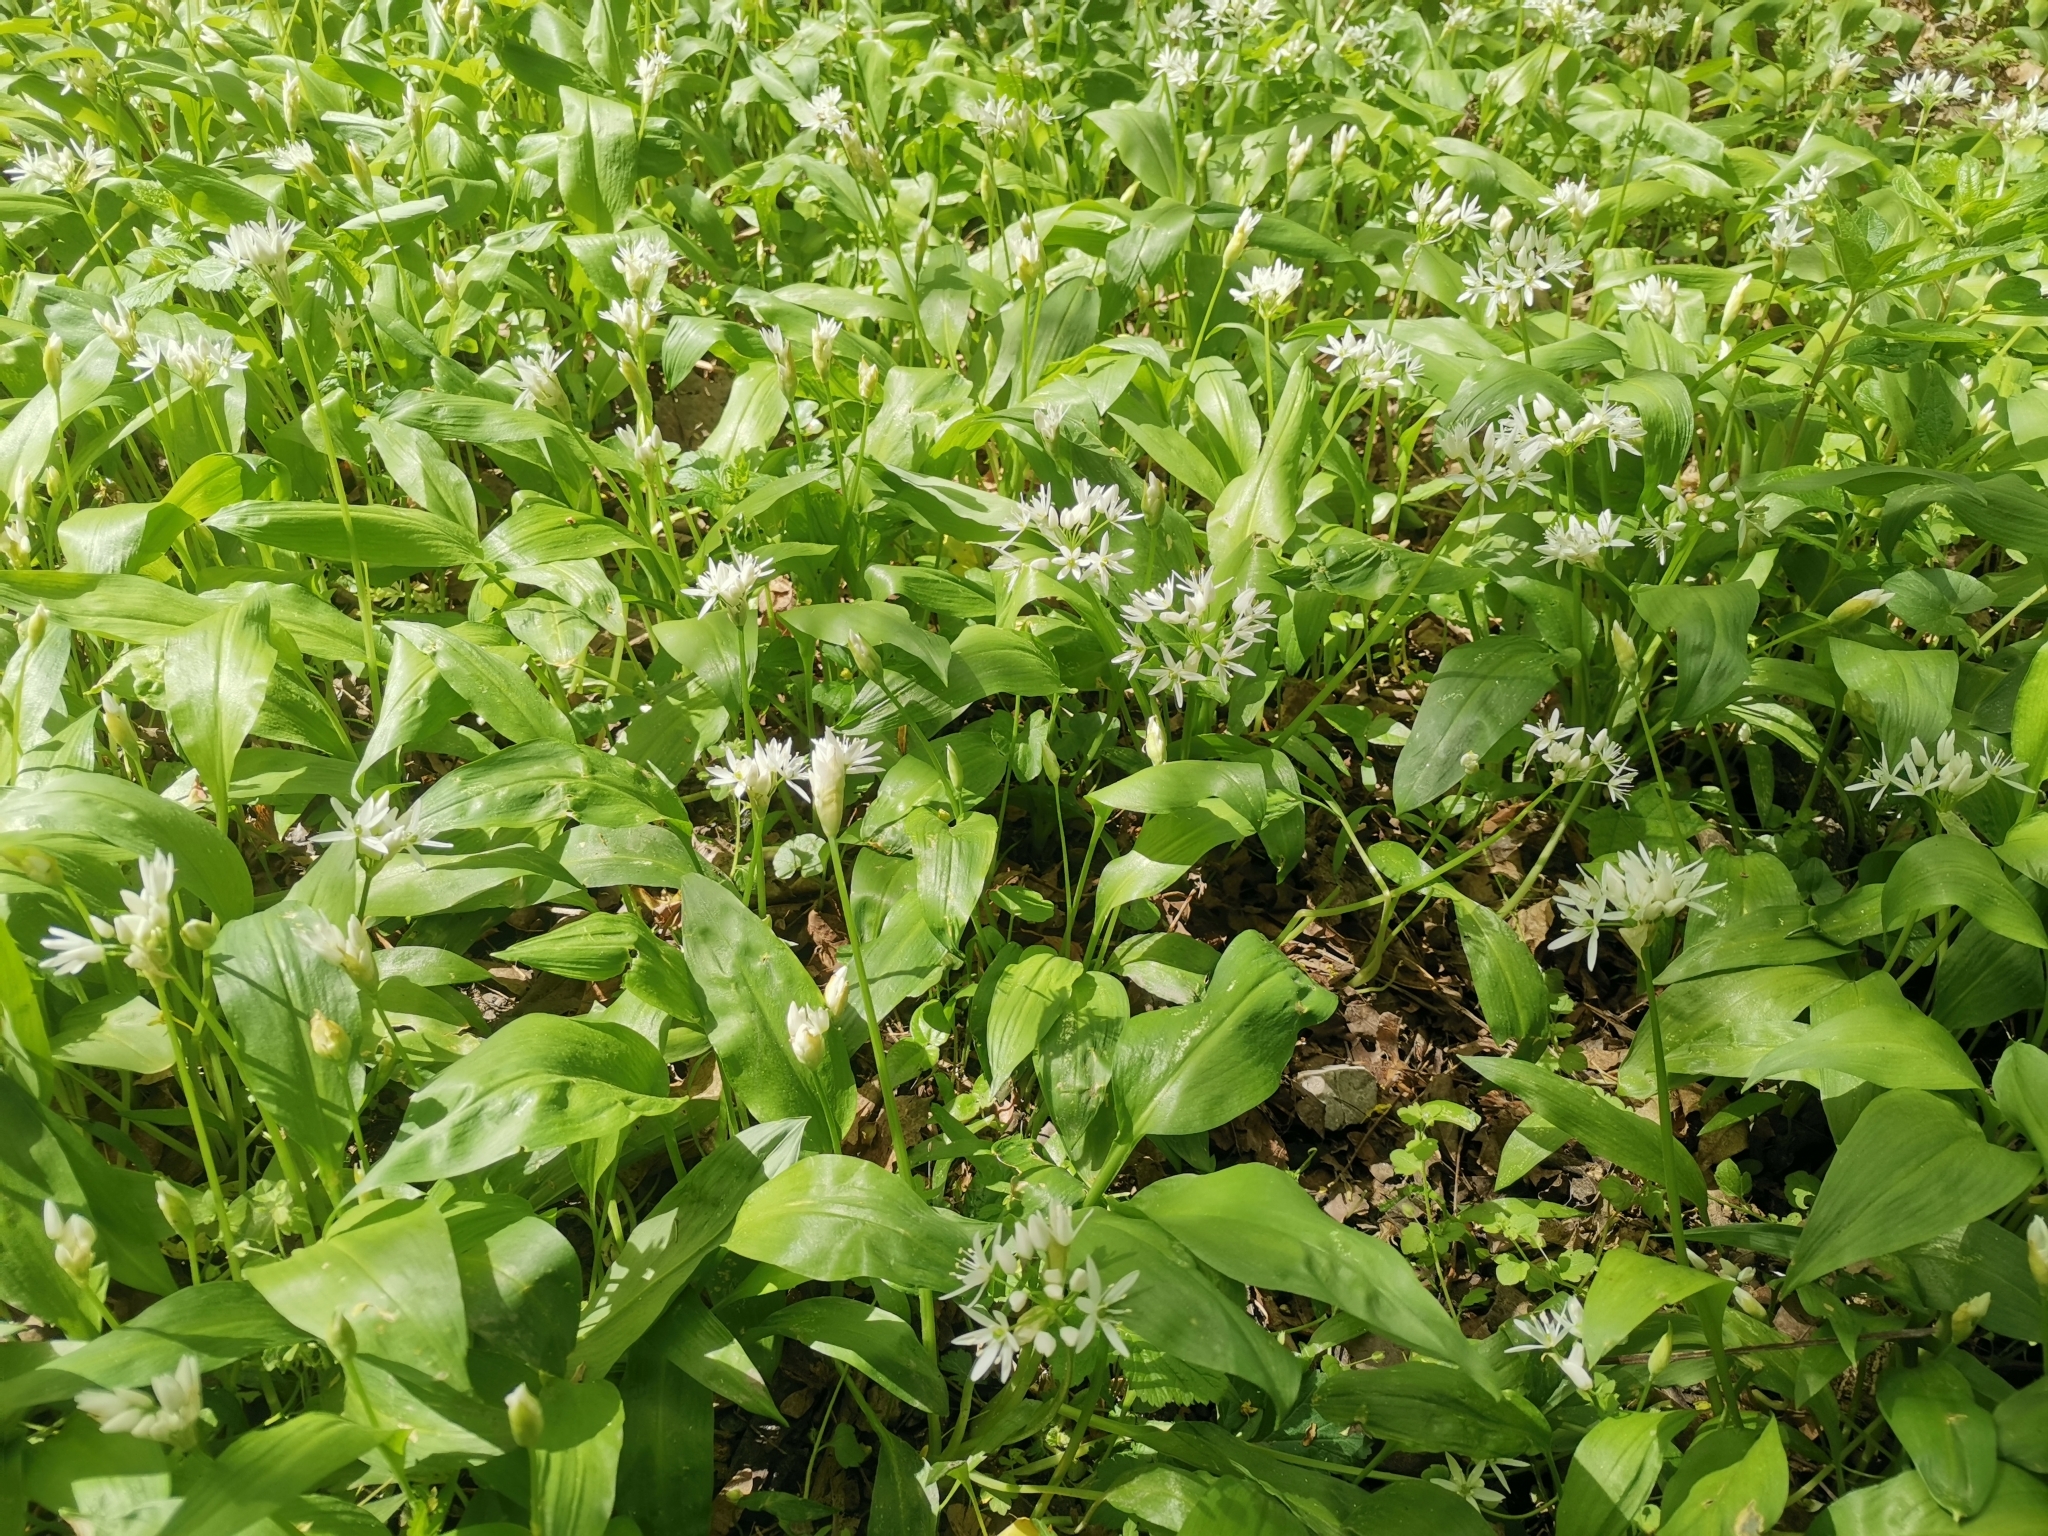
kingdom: Plantae
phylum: Tracheophyta
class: Liliopsida
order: Asparagales
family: Amaryllidaceae
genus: Allium
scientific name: Allium ursinum
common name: Ramsons
